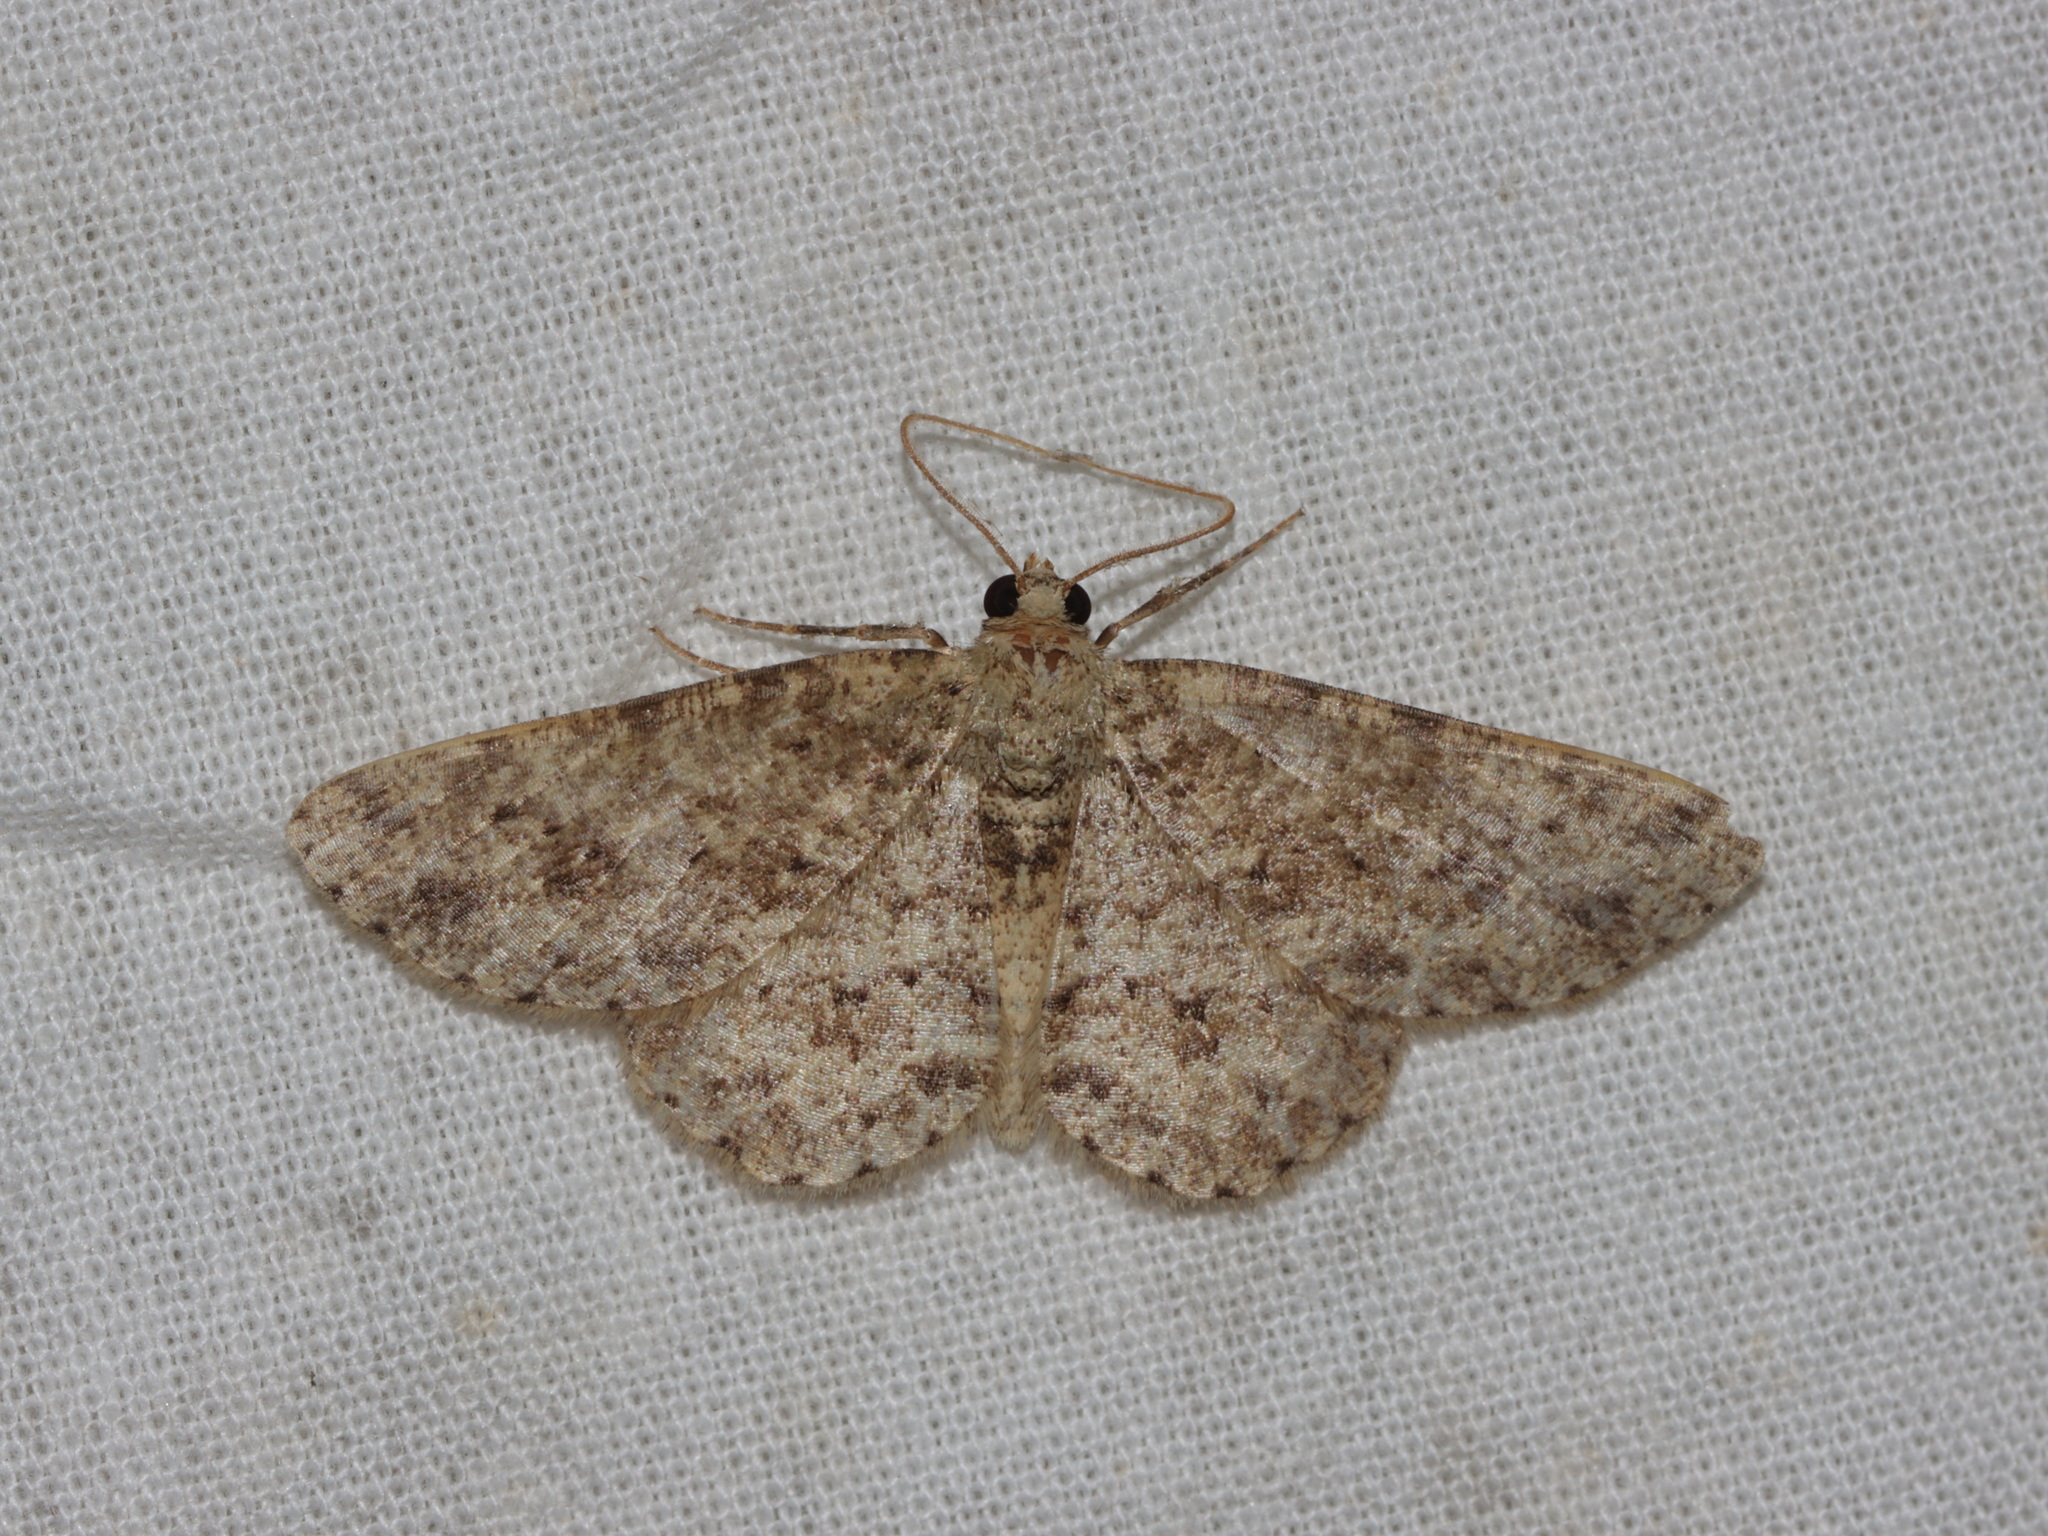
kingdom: Animalia
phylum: Arthropoda
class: Insecta
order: Lepidoptera
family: Geometridae
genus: Ectropis
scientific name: Ectropis bhurmitra
